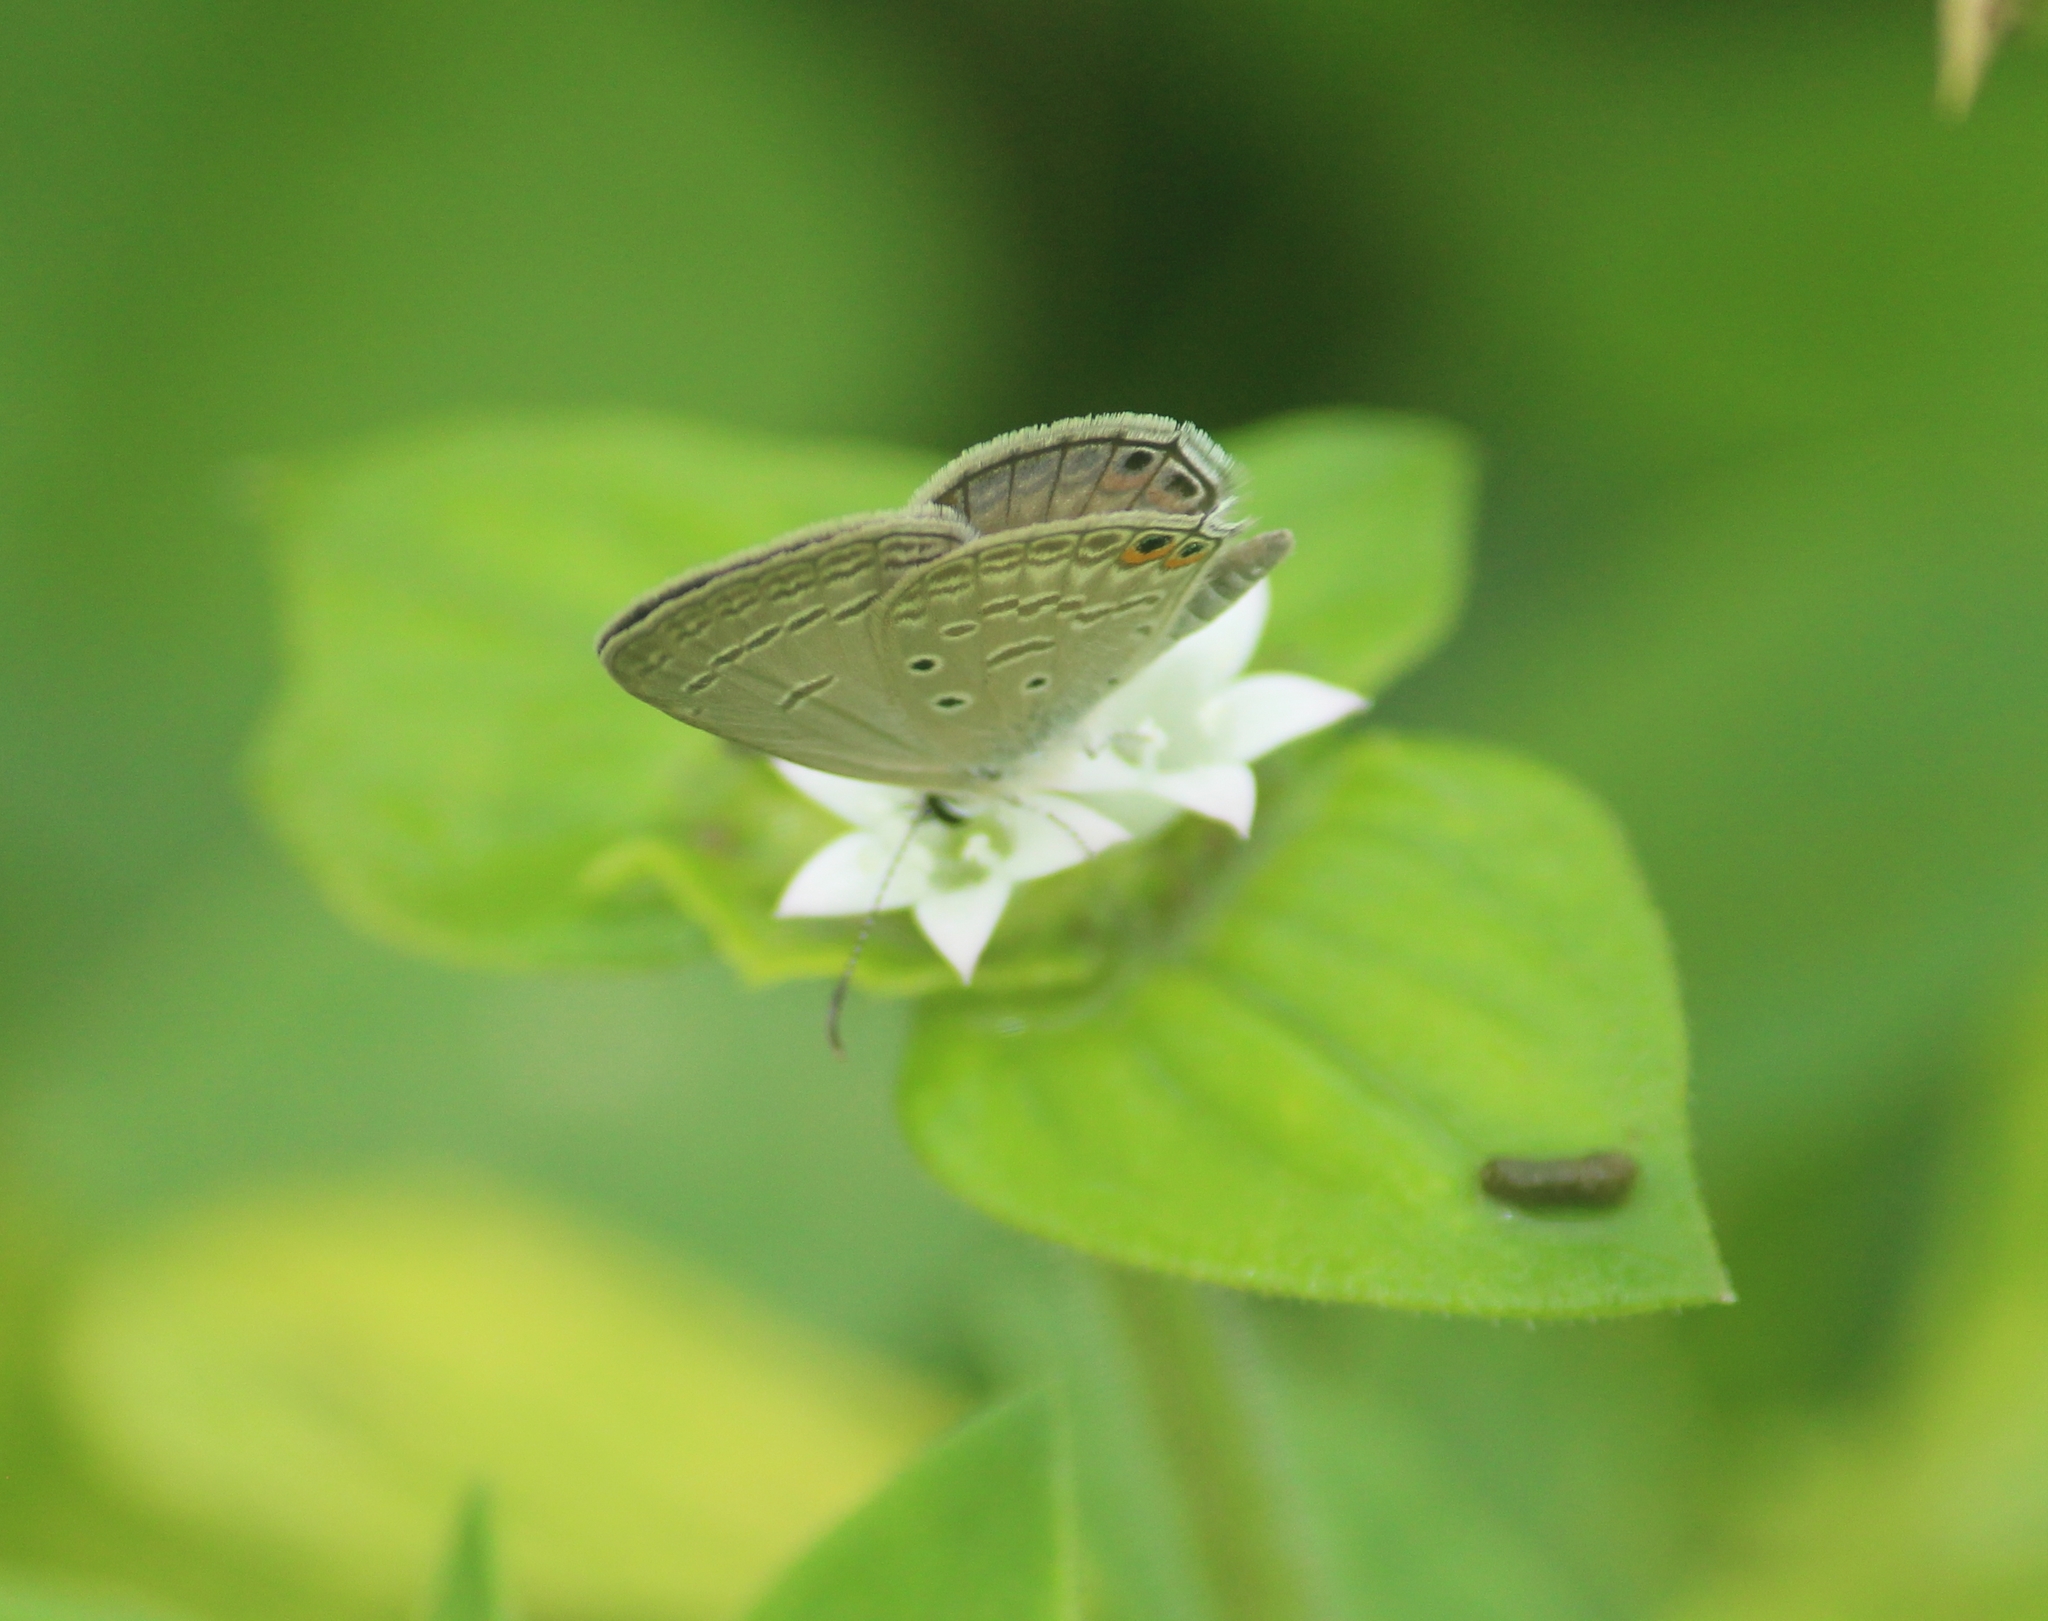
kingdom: Animalia
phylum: Arthropoda
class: Insecta
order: Lepidoptera
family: Lycaenidae
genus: Euchrysops
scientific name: Euchrysops cnejus
